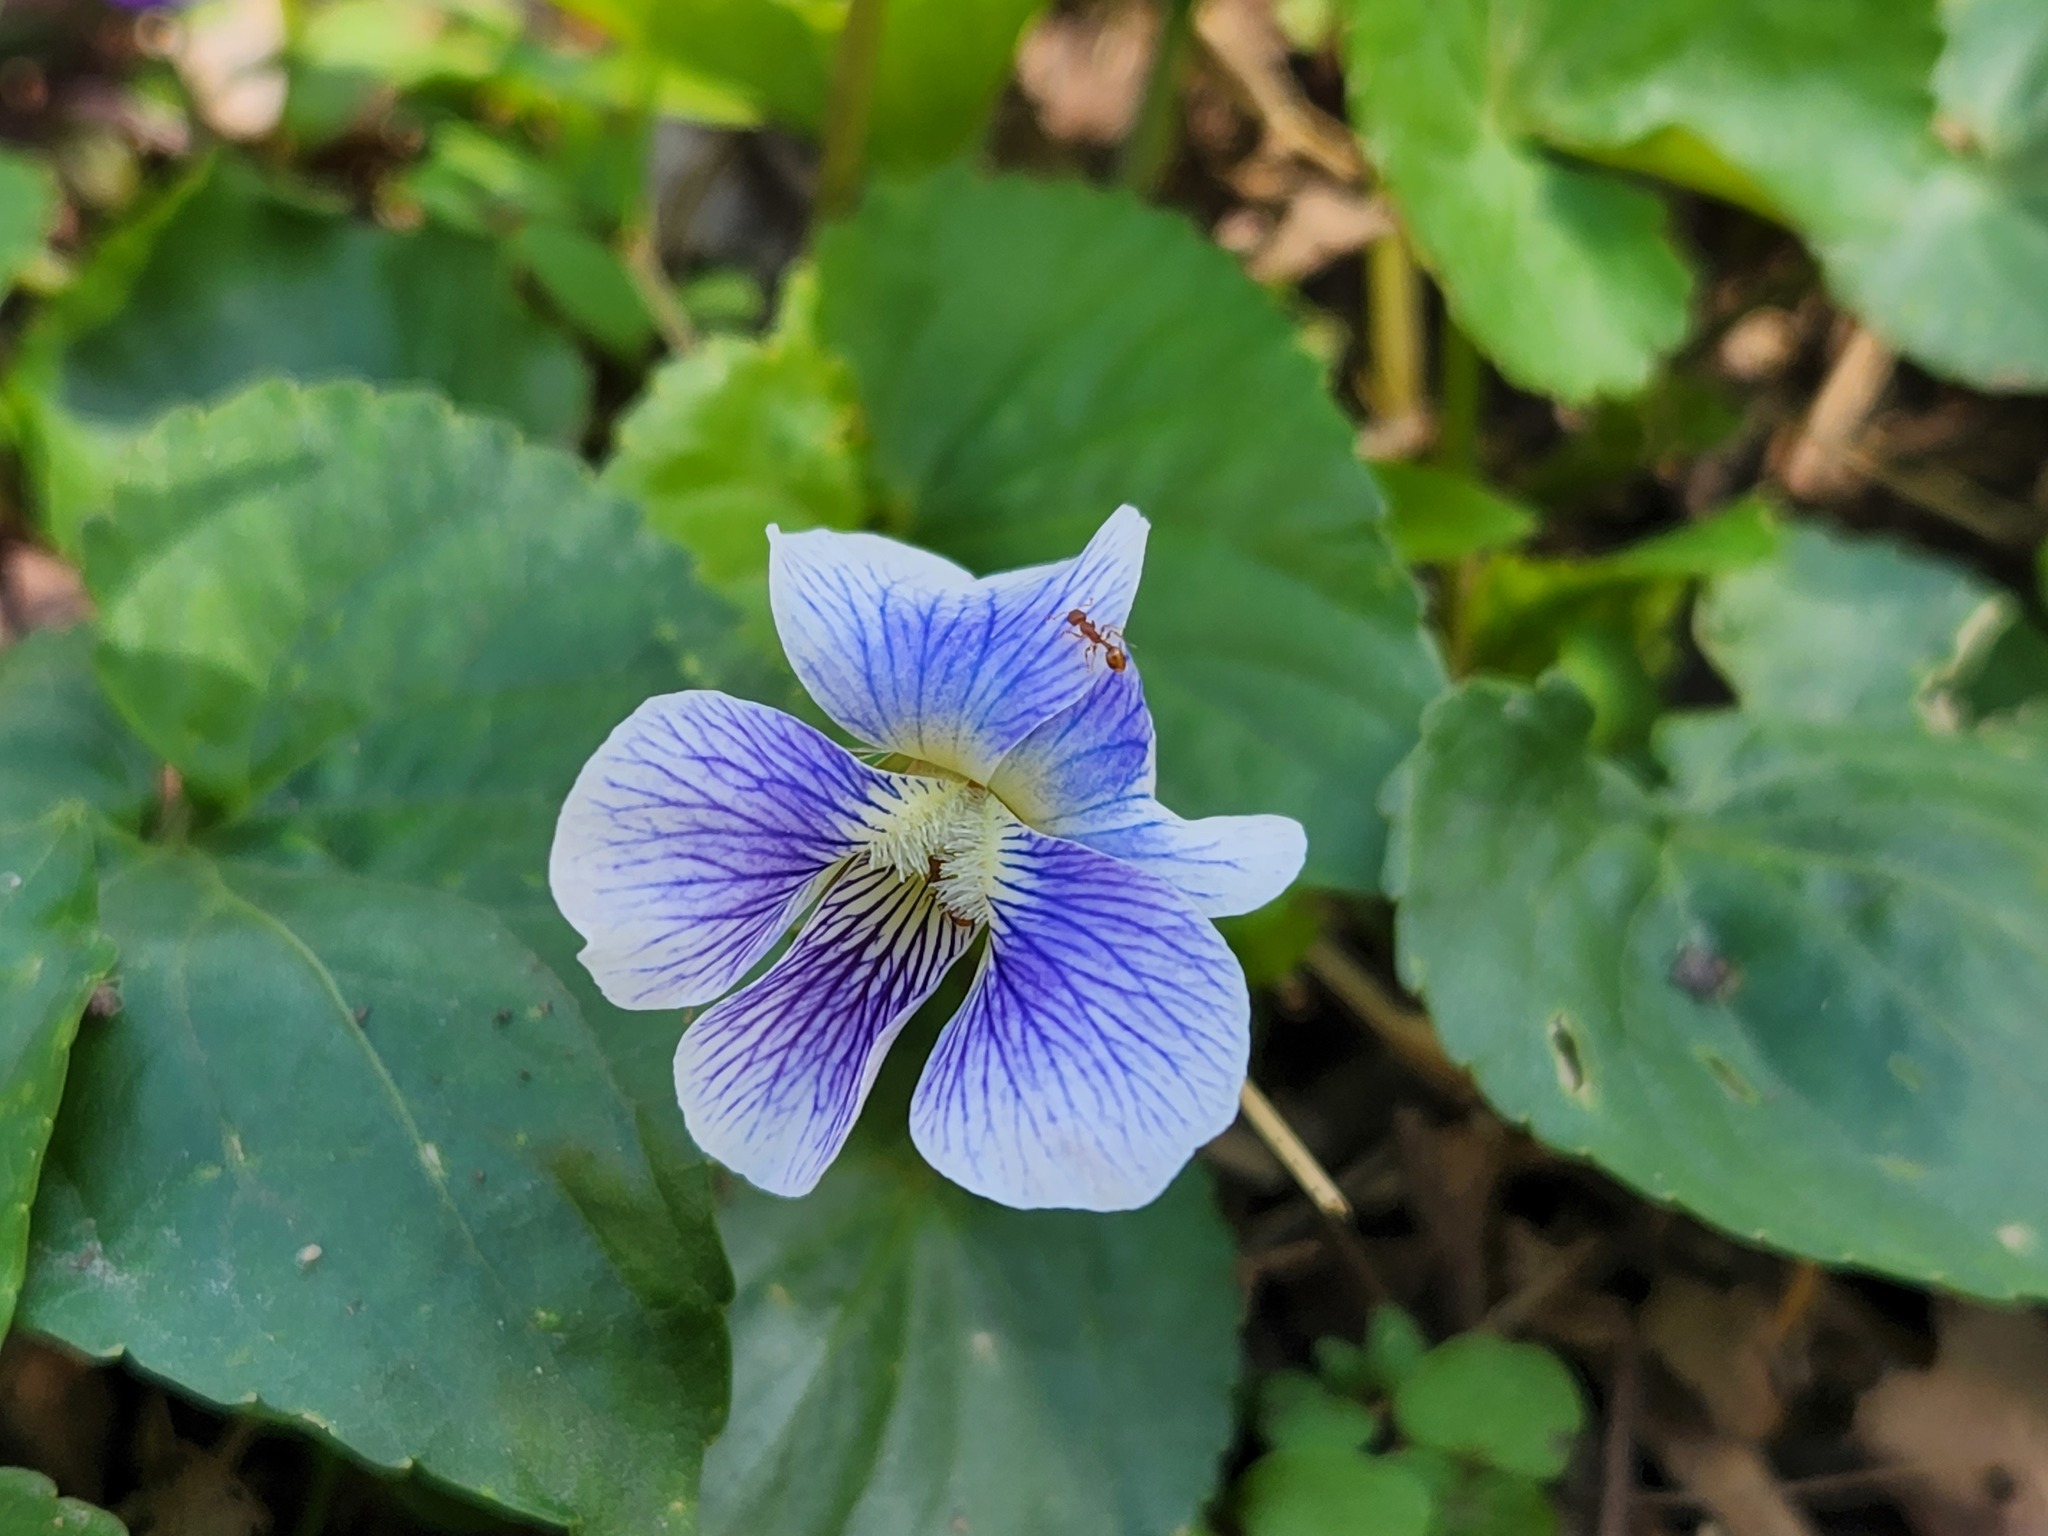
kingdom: Plantae
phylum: Tracheophyta
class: Magnoliopsida
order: Malpighiales
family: Violaceae
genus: Viola
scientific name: Viola sororia
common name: Dooryard violet
